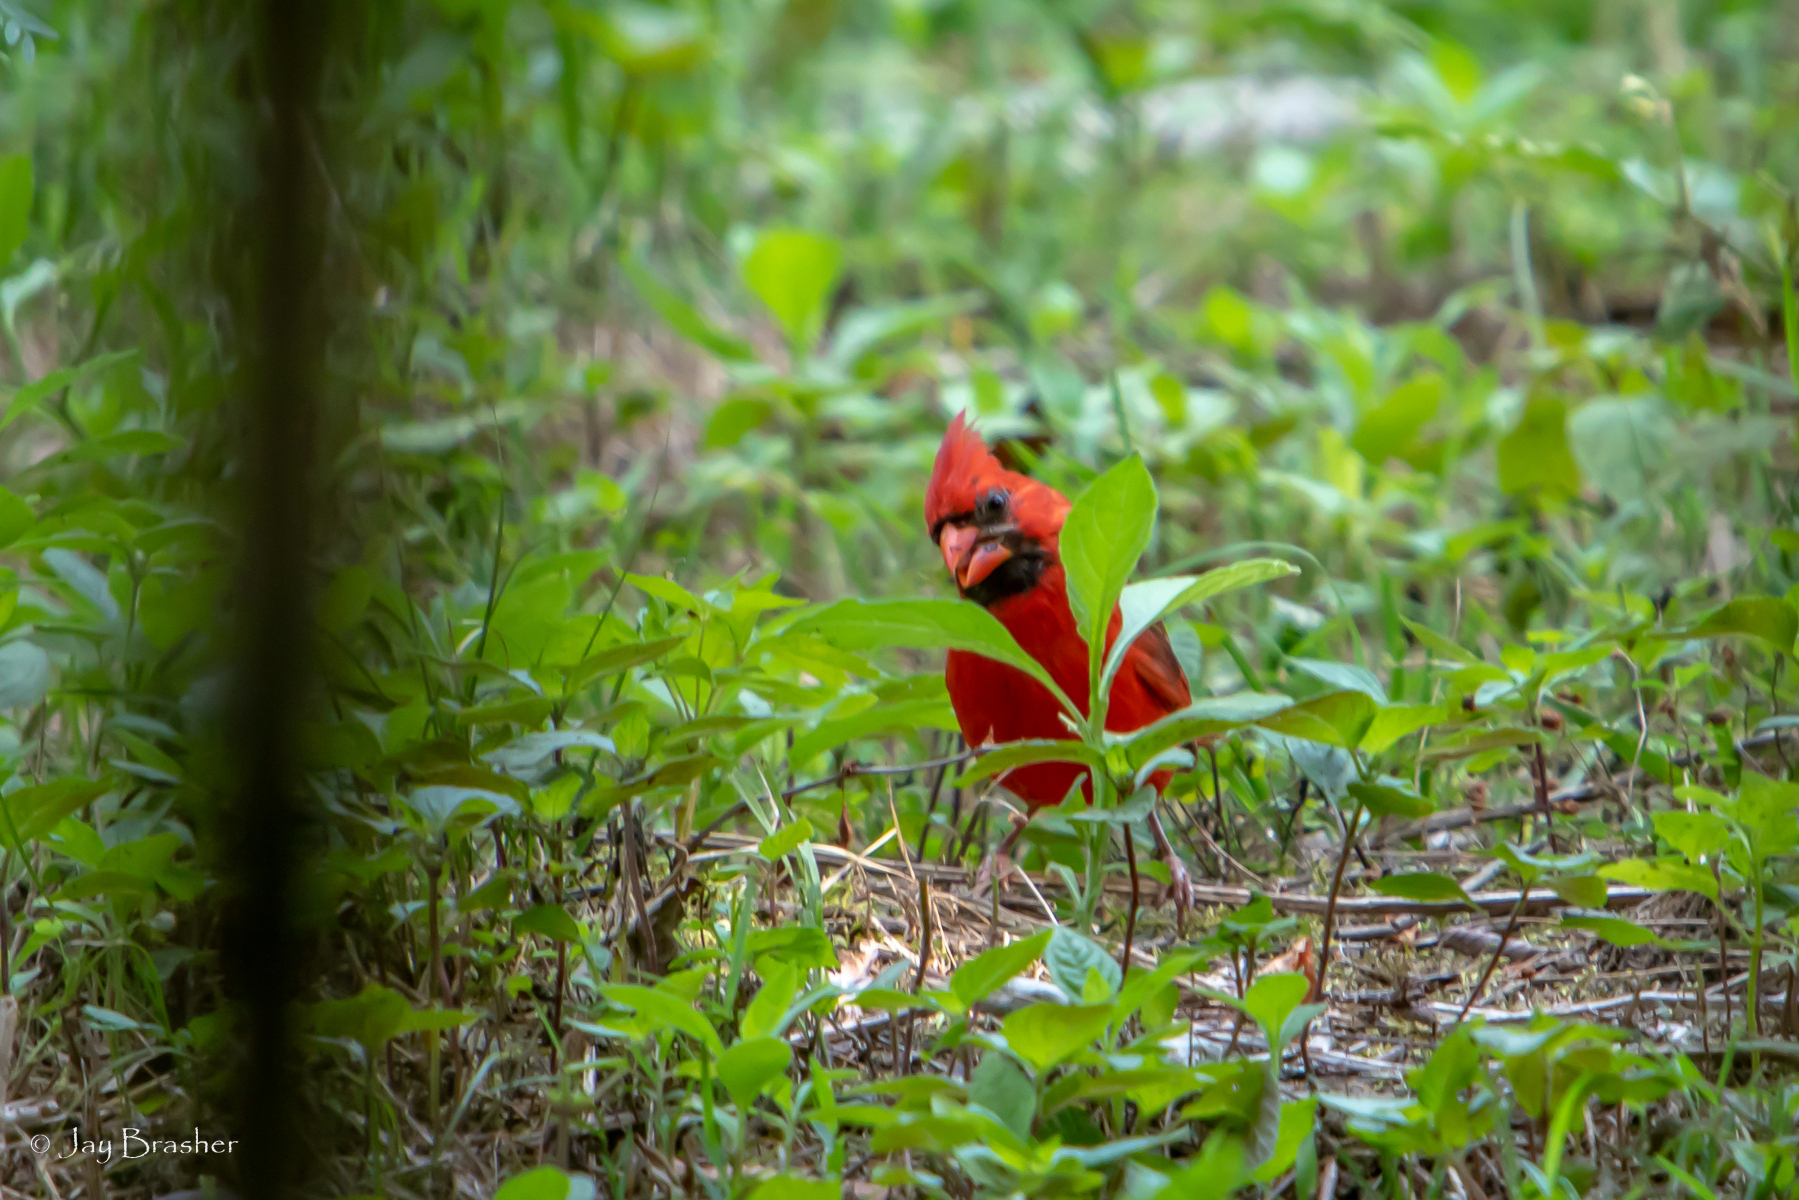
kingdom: Animalia
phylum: Chordata
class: Aves
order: Passeriformes
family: Cardinalidae
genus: Cardinalis
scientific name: Cardinalis cardinalis
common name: Northern cardinal
